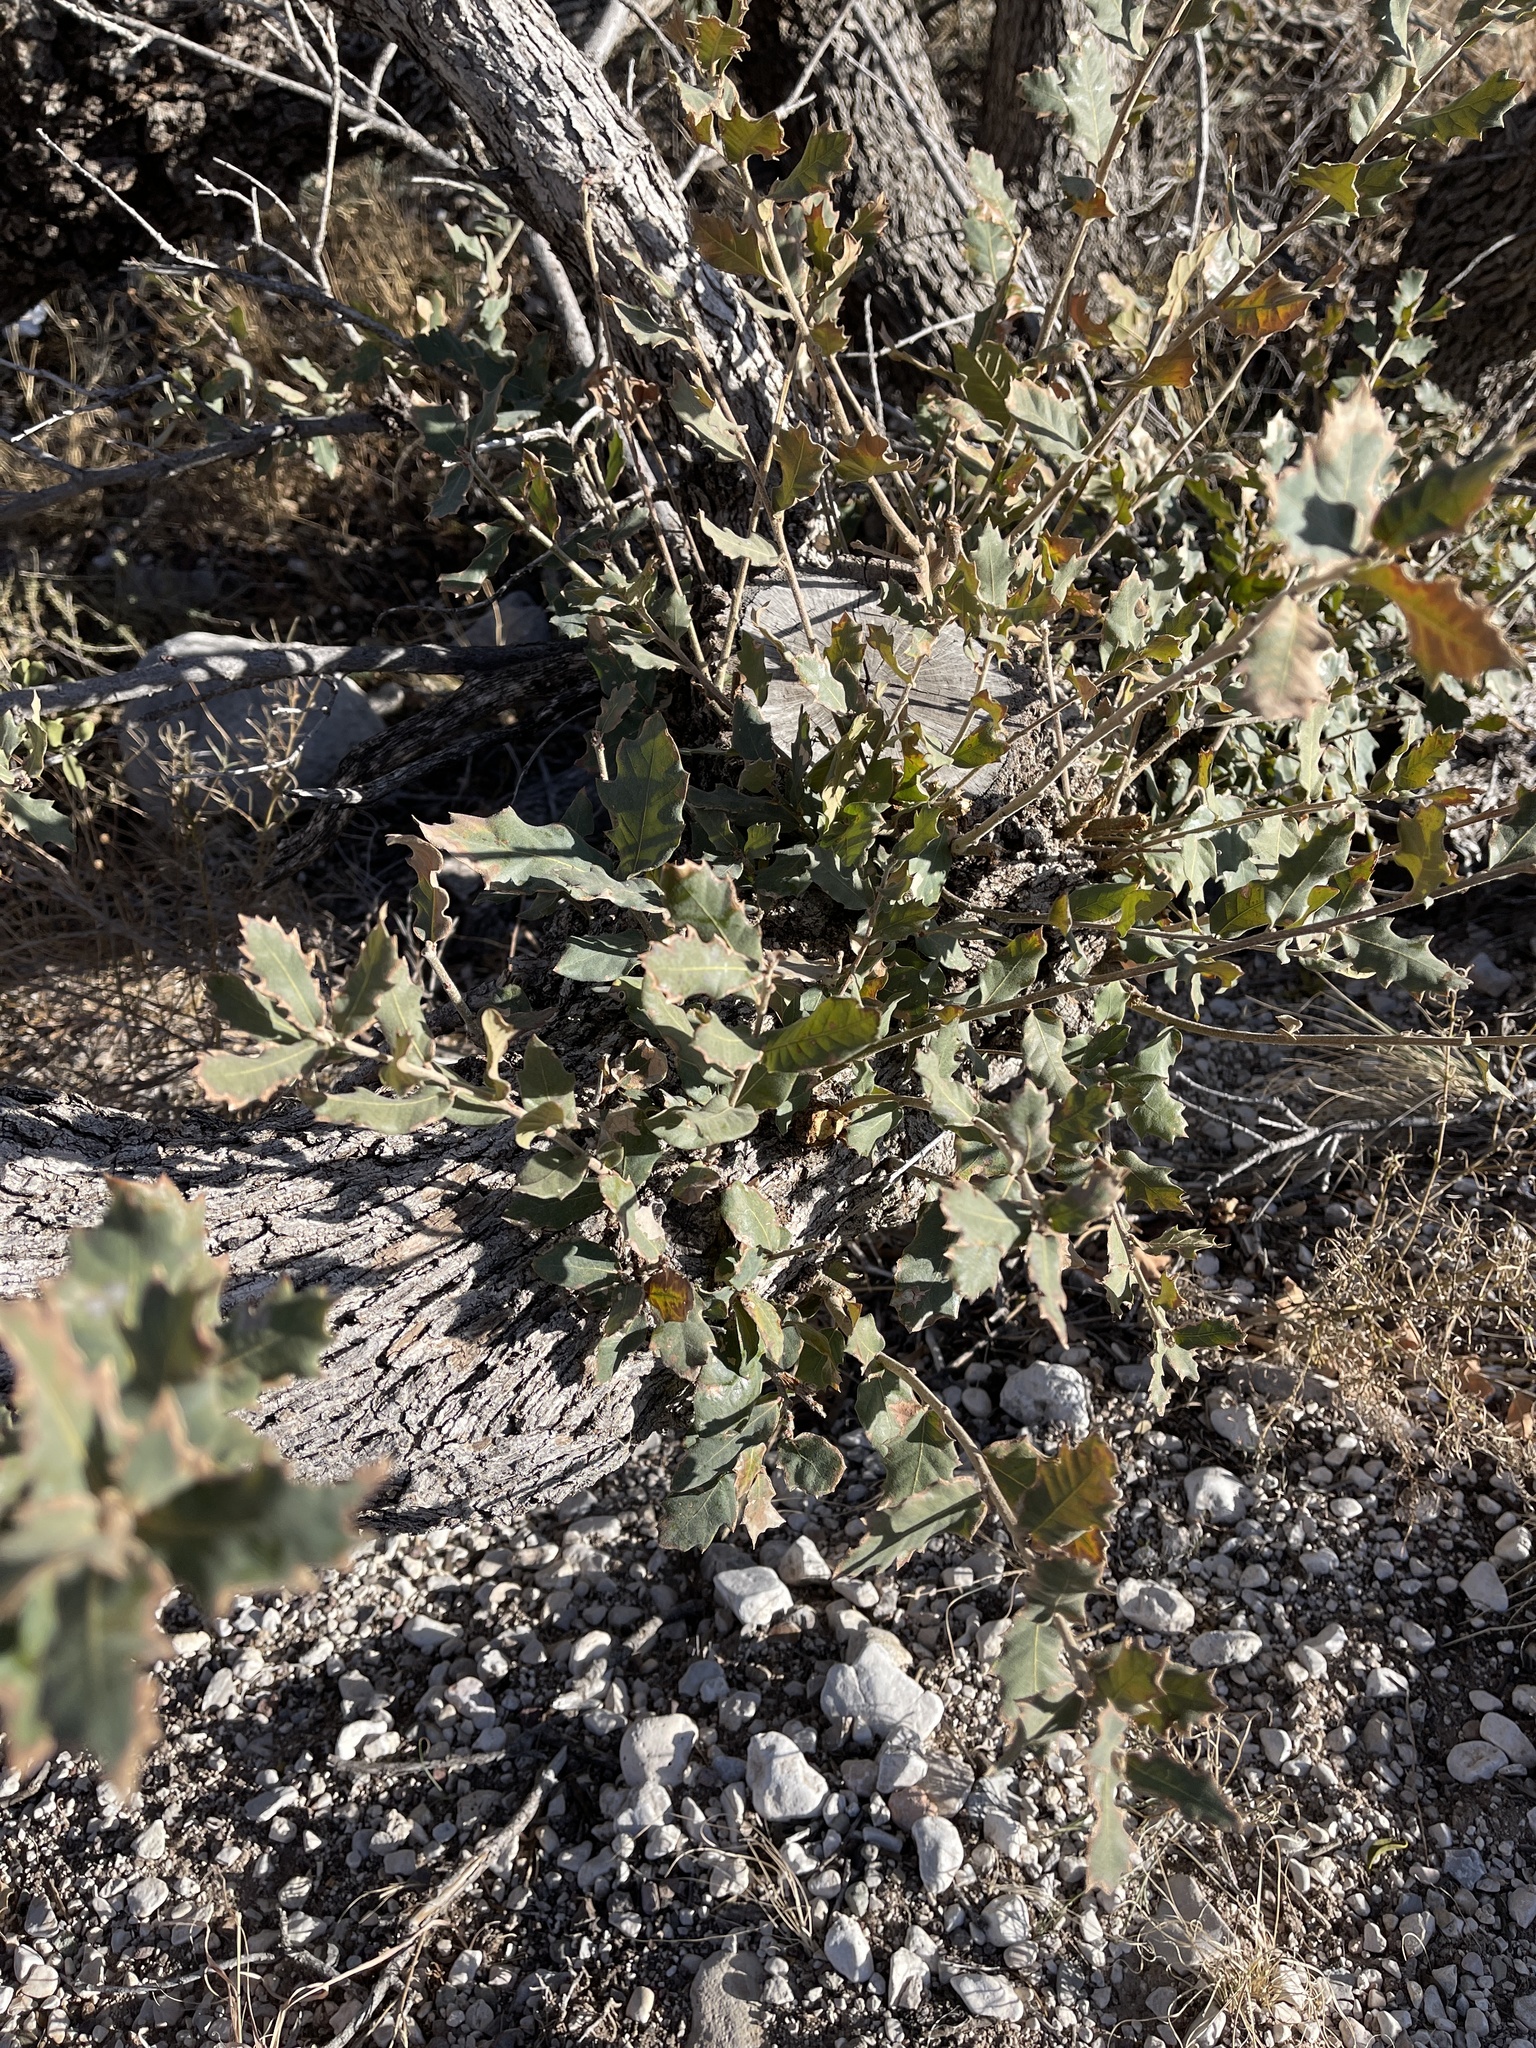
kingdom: Plantae
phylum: Tracheophyta
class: Magnoliopsida
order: Fagales
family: Fagaceae
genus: Quercus
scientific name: Quercus pungens
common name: Pungent oak
